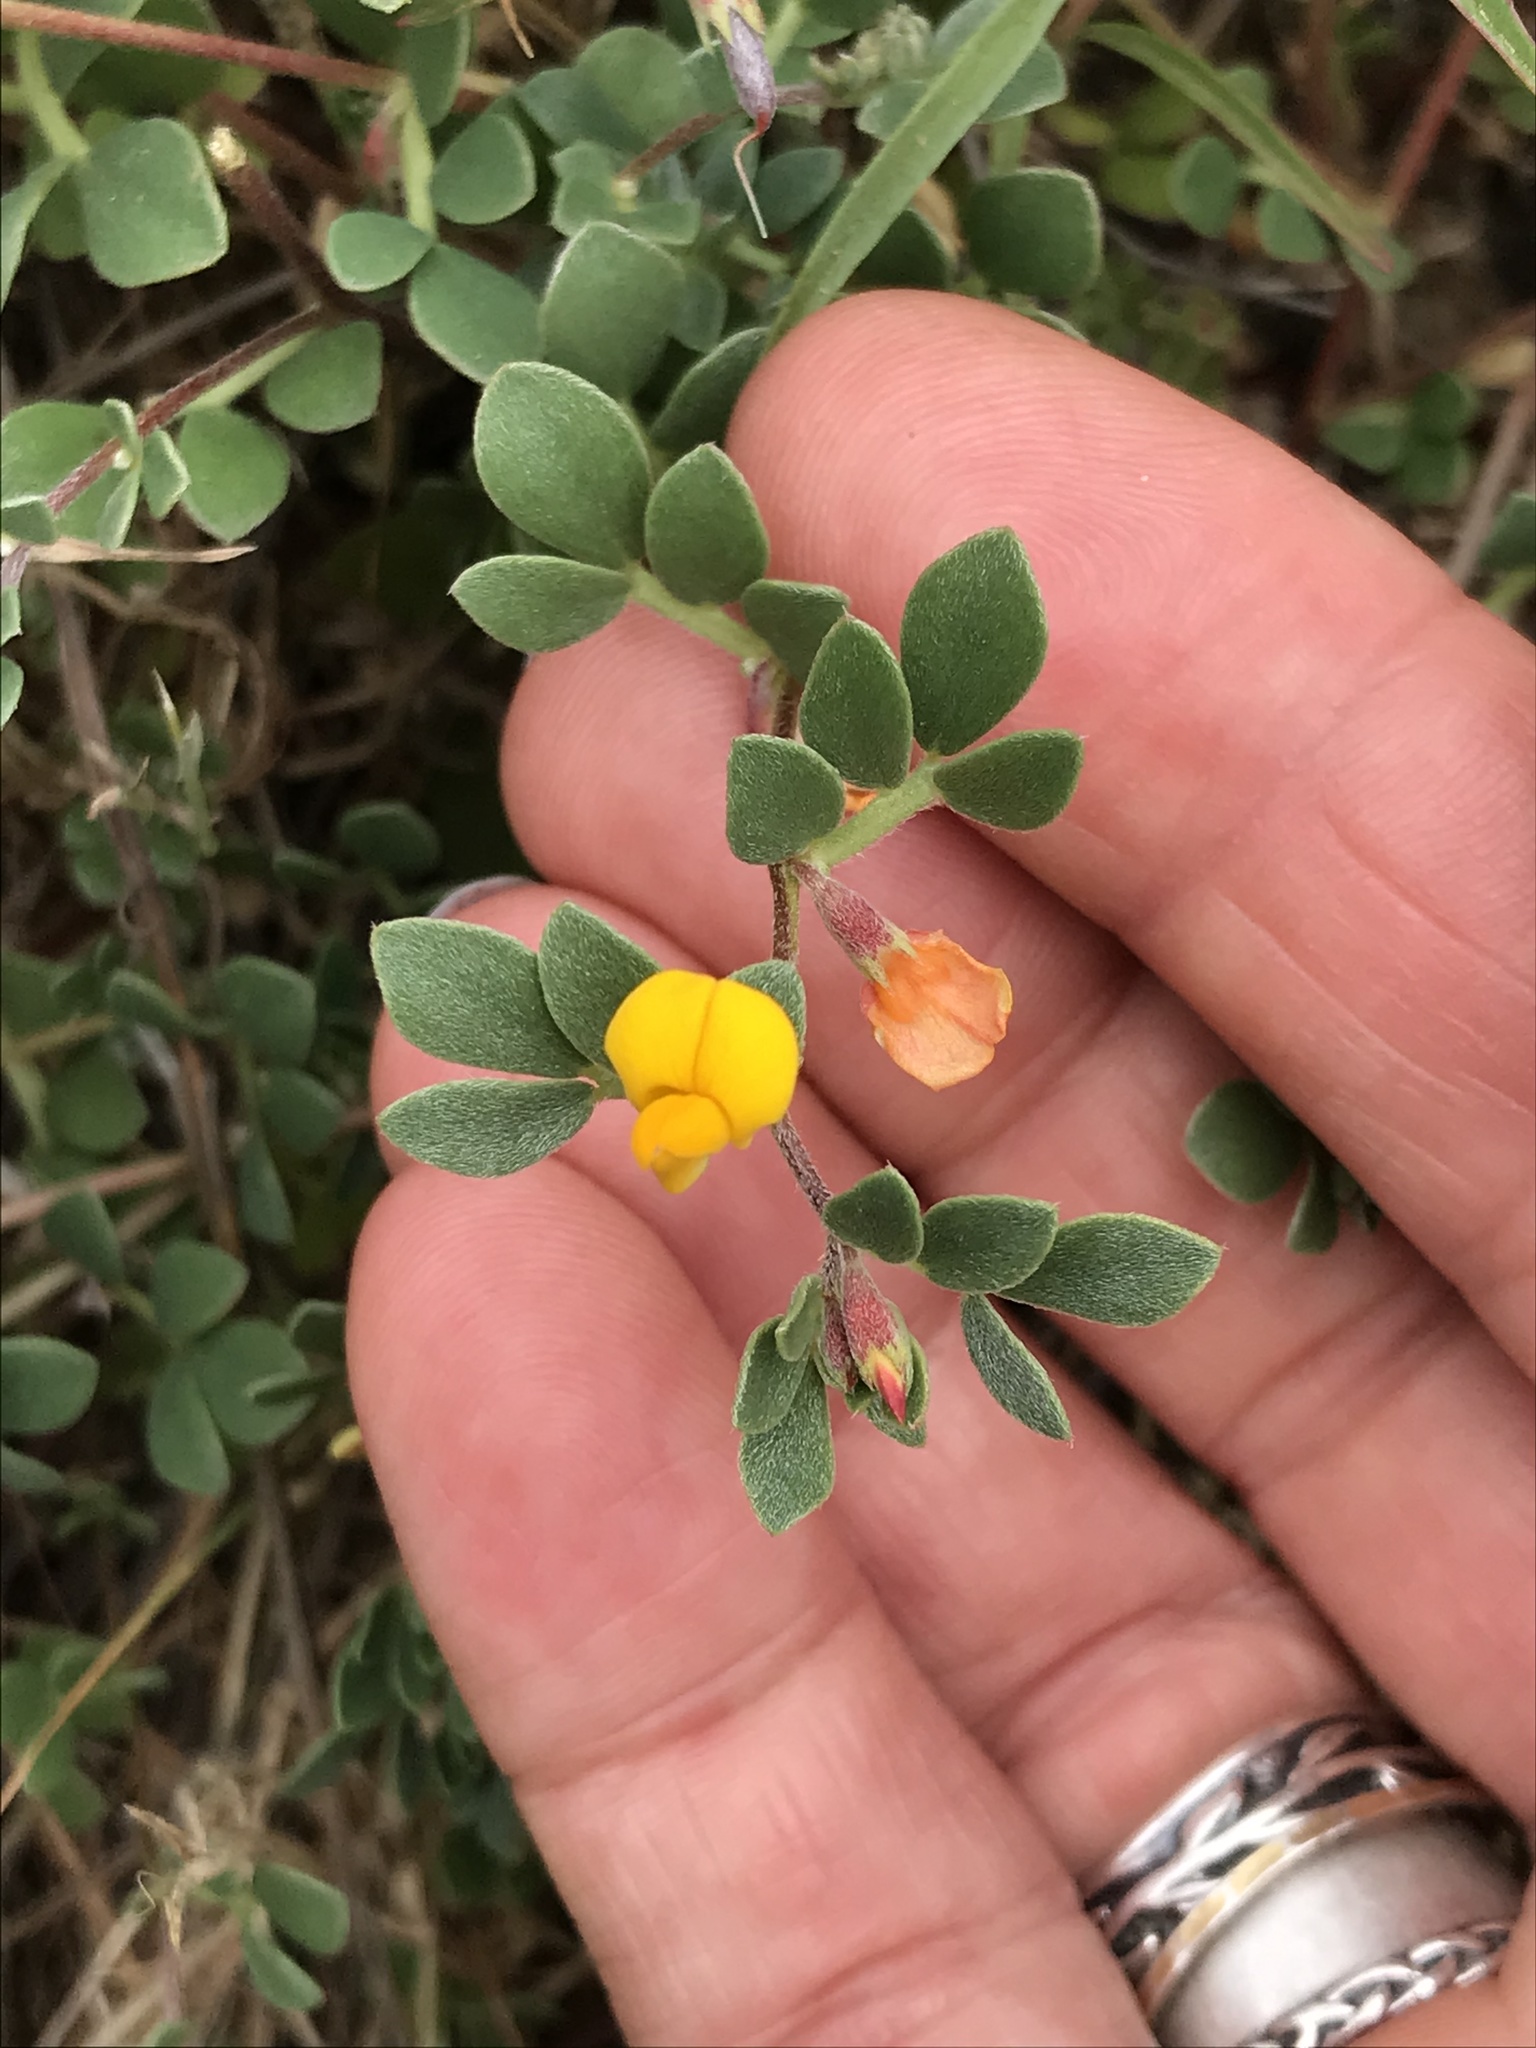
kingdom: Plantae
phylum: Tracheophyta
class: Magnoliopsida
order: Fabales
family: Fabaceae
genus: Acmispon
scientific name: Acmispon wrangelianus
